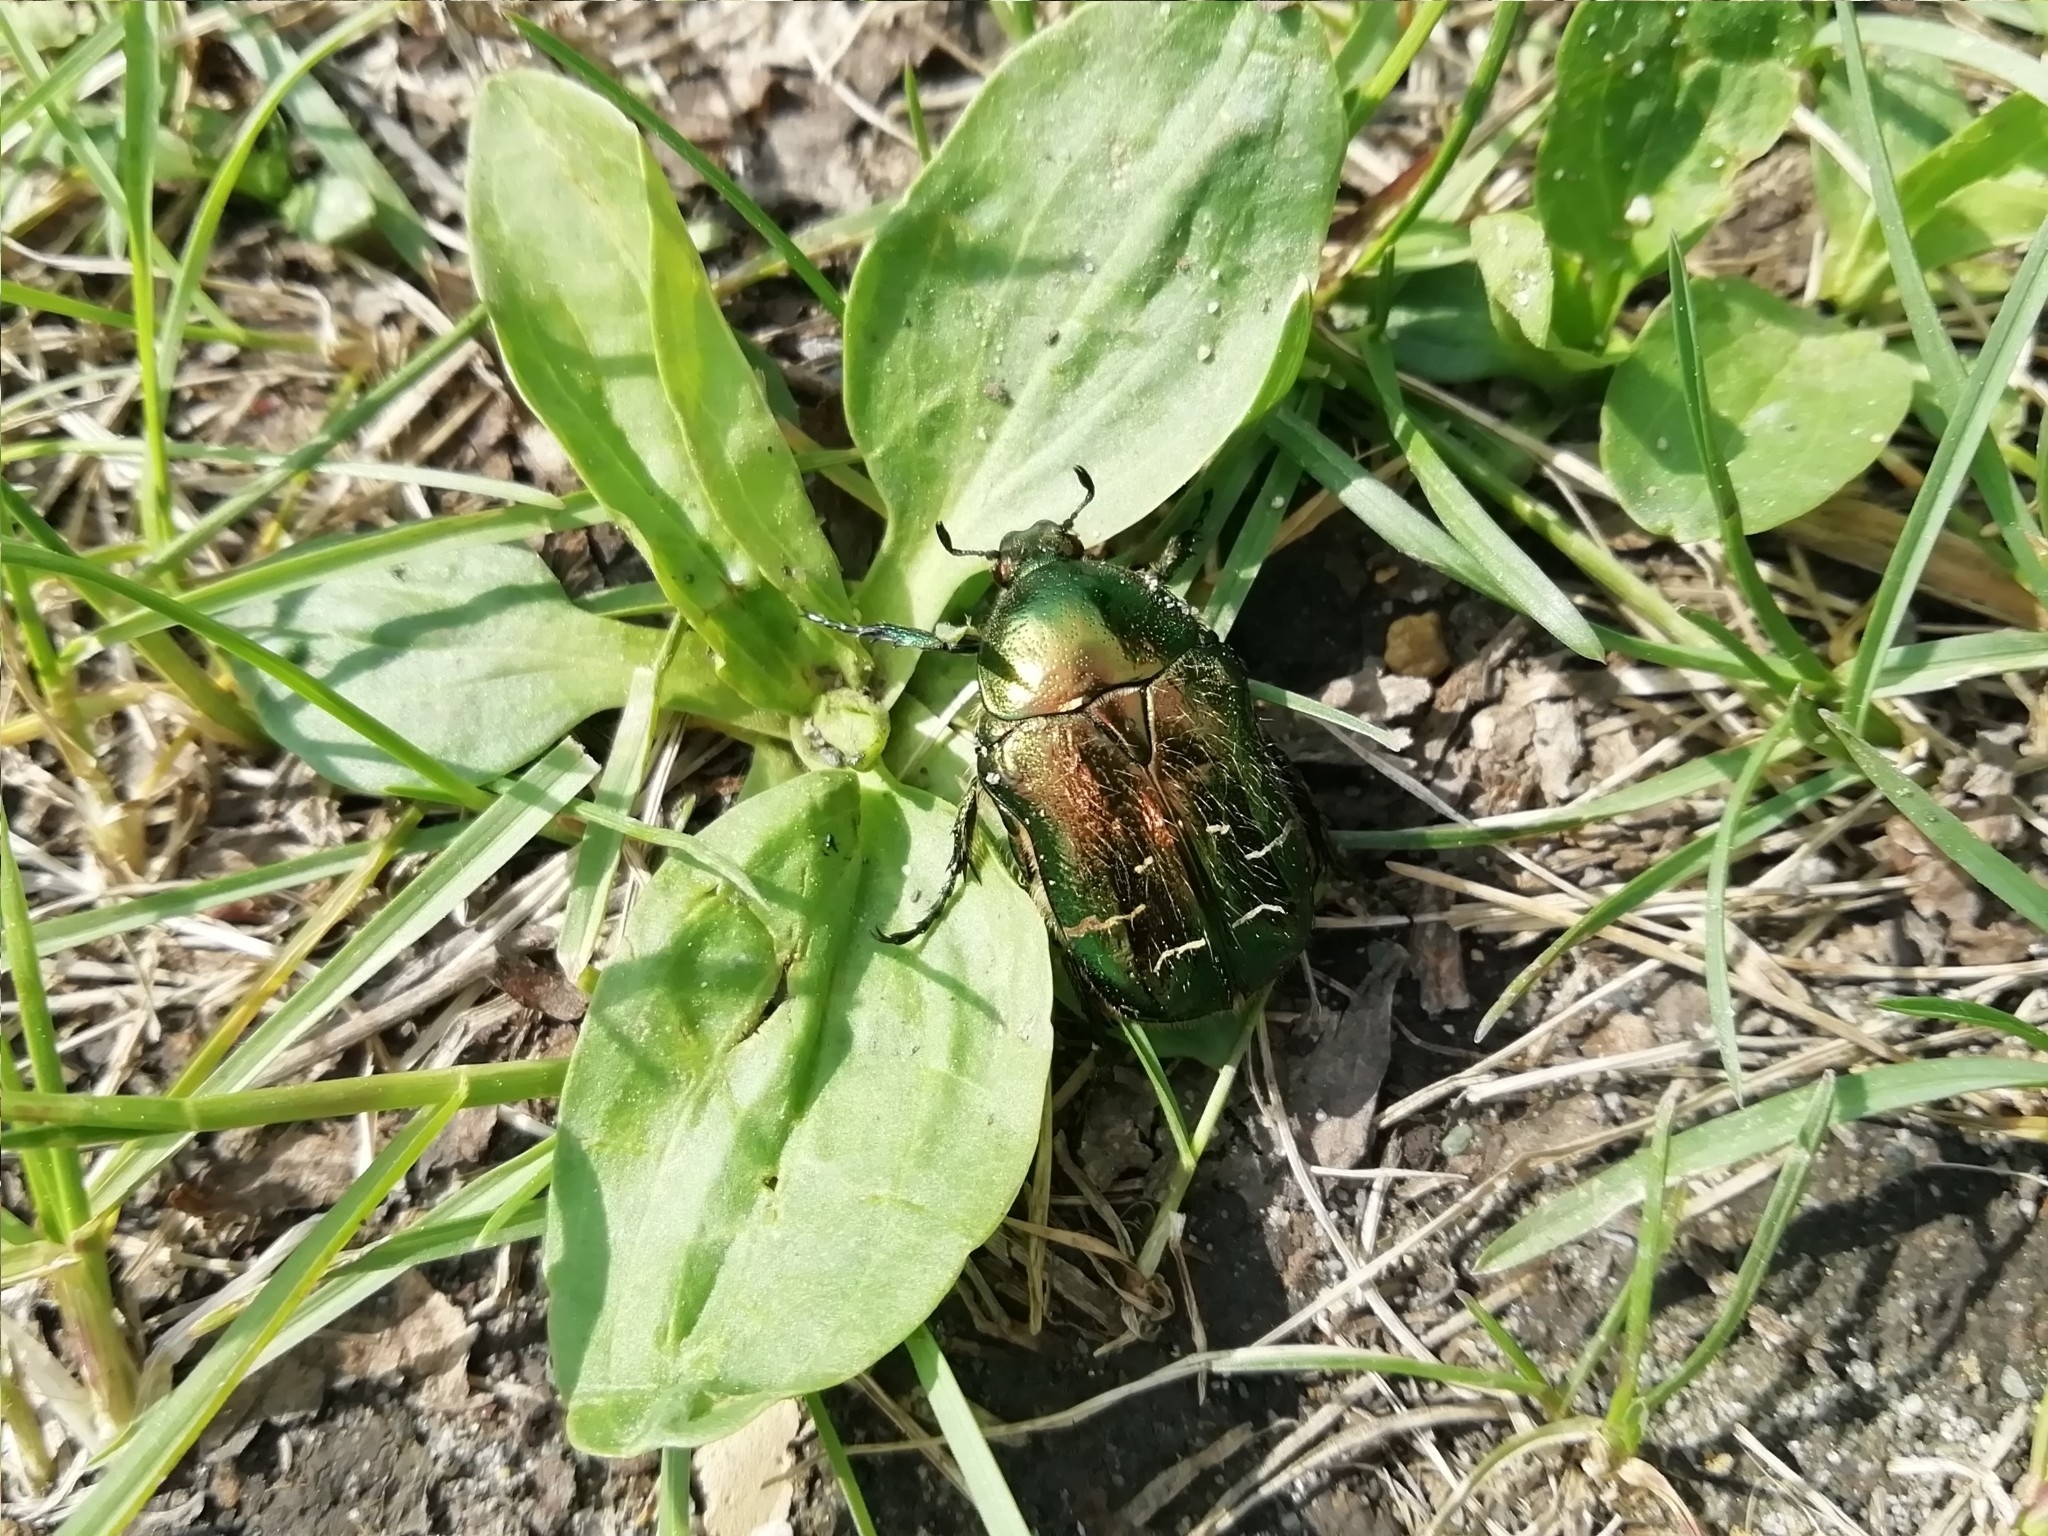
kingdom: Animalia
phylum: Arthropoda
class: Insecta
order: Coleoptera
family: Scarabaeidae
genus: Cetonia
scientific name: Cetonia aurata
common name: Rose chafer
